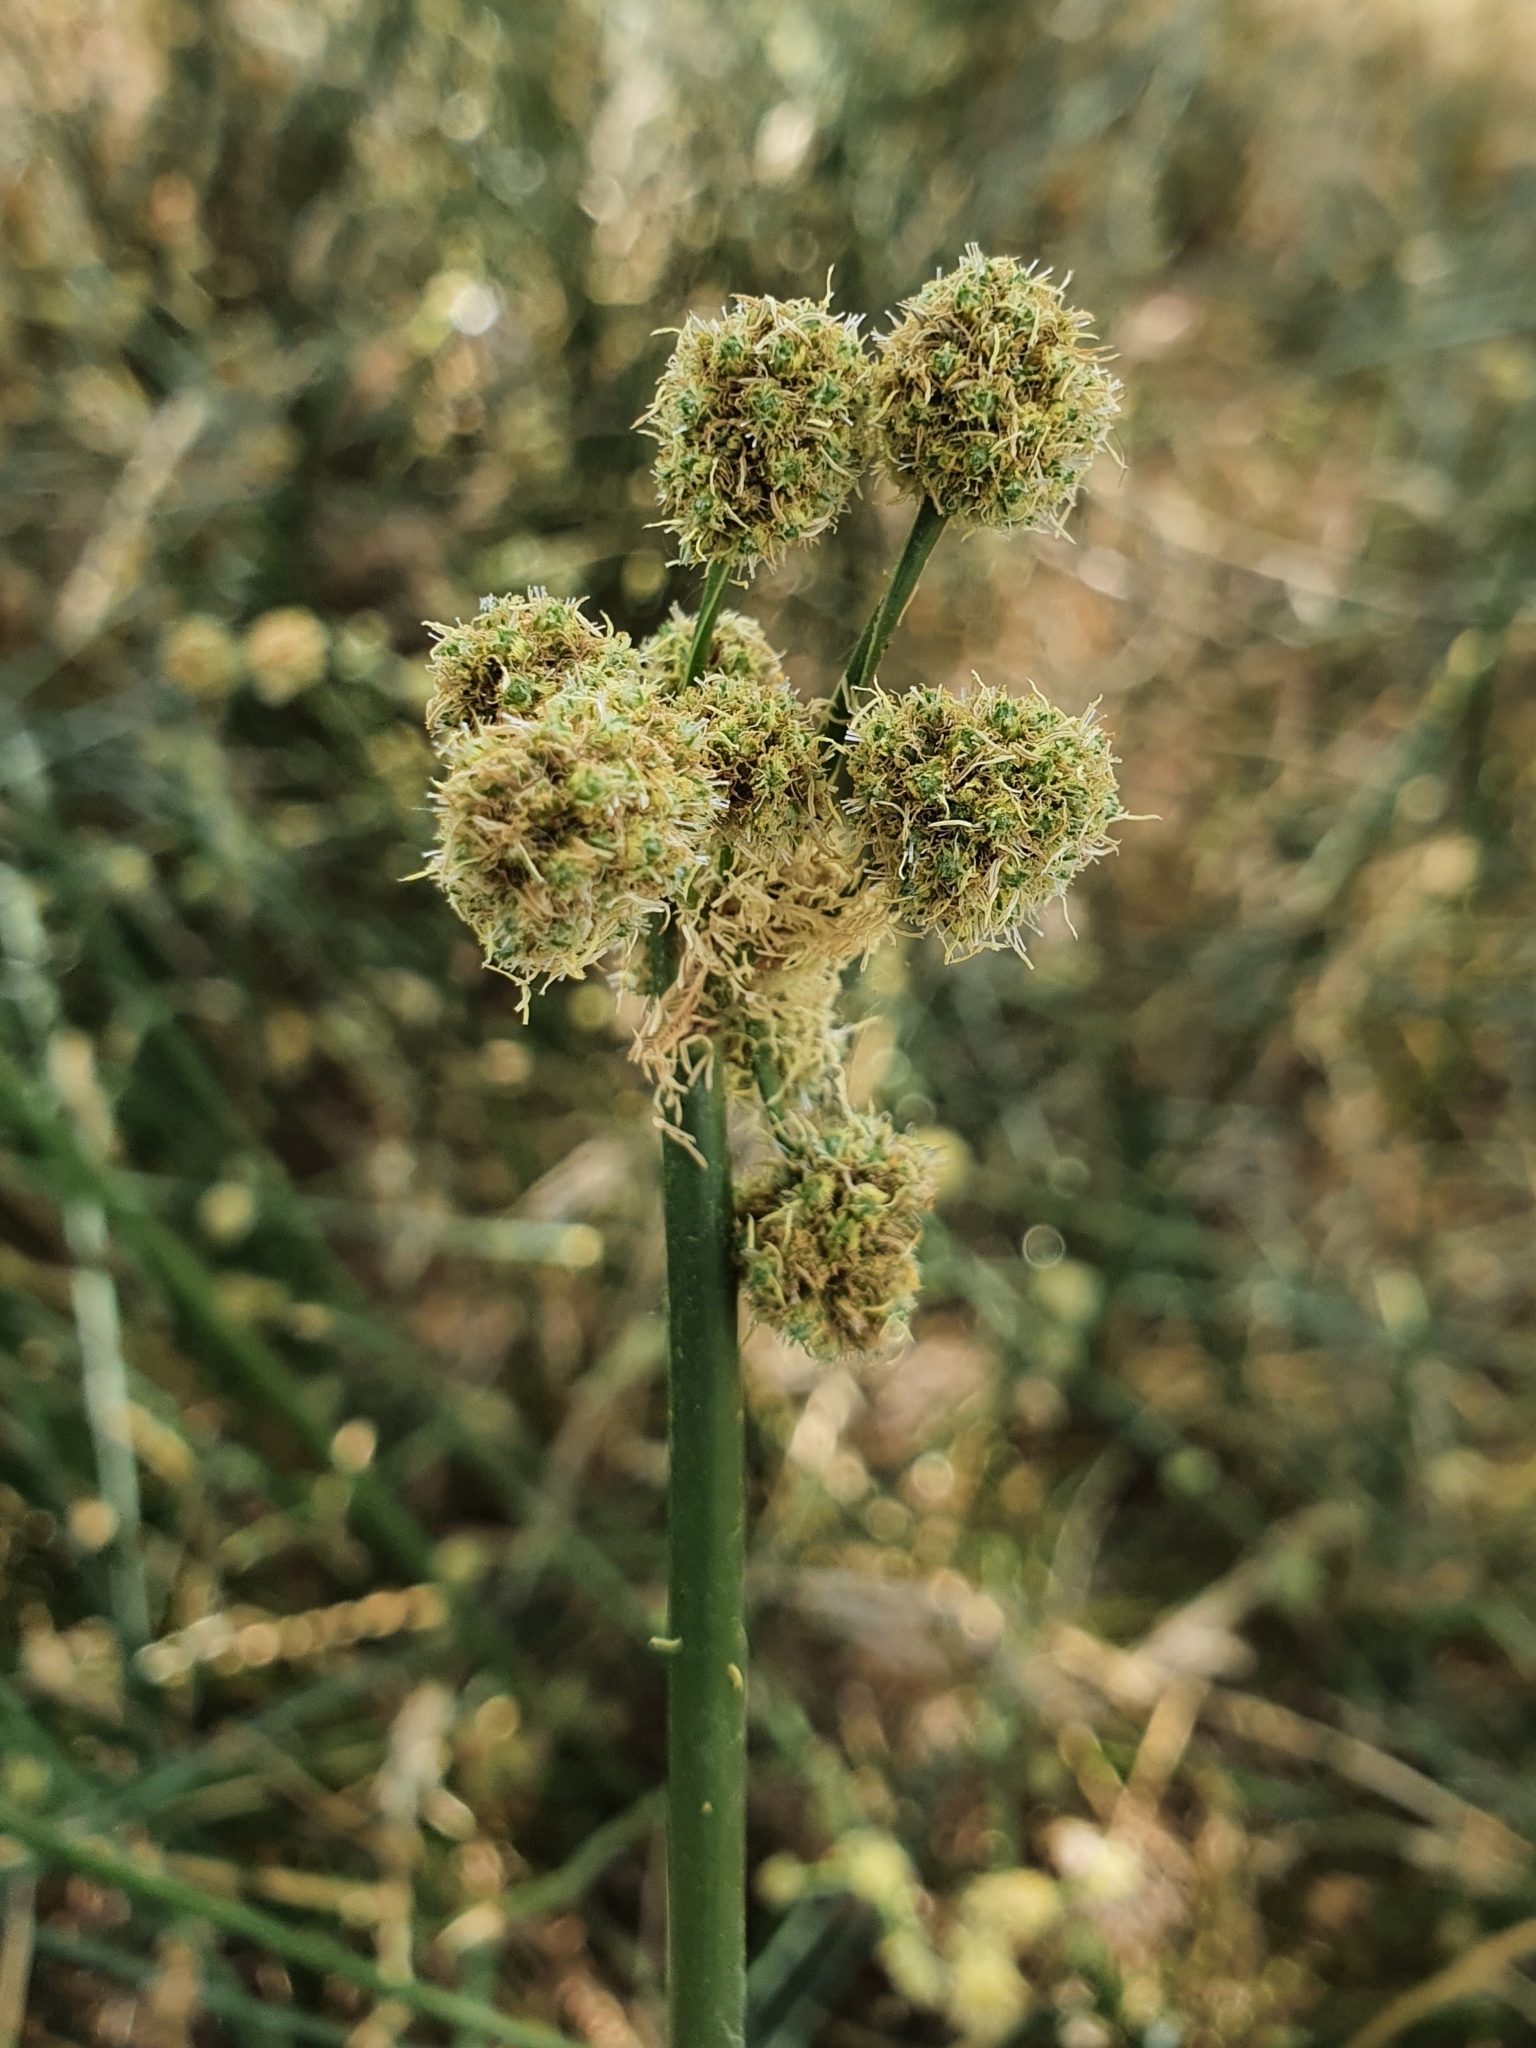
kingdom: Plantae
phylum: Tracheophyta
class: Liliopsida
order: Poales
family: Cyperaceae
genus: Scirpoides
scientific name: Scirpoides holoschoenus
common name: Round-headed club-rush
